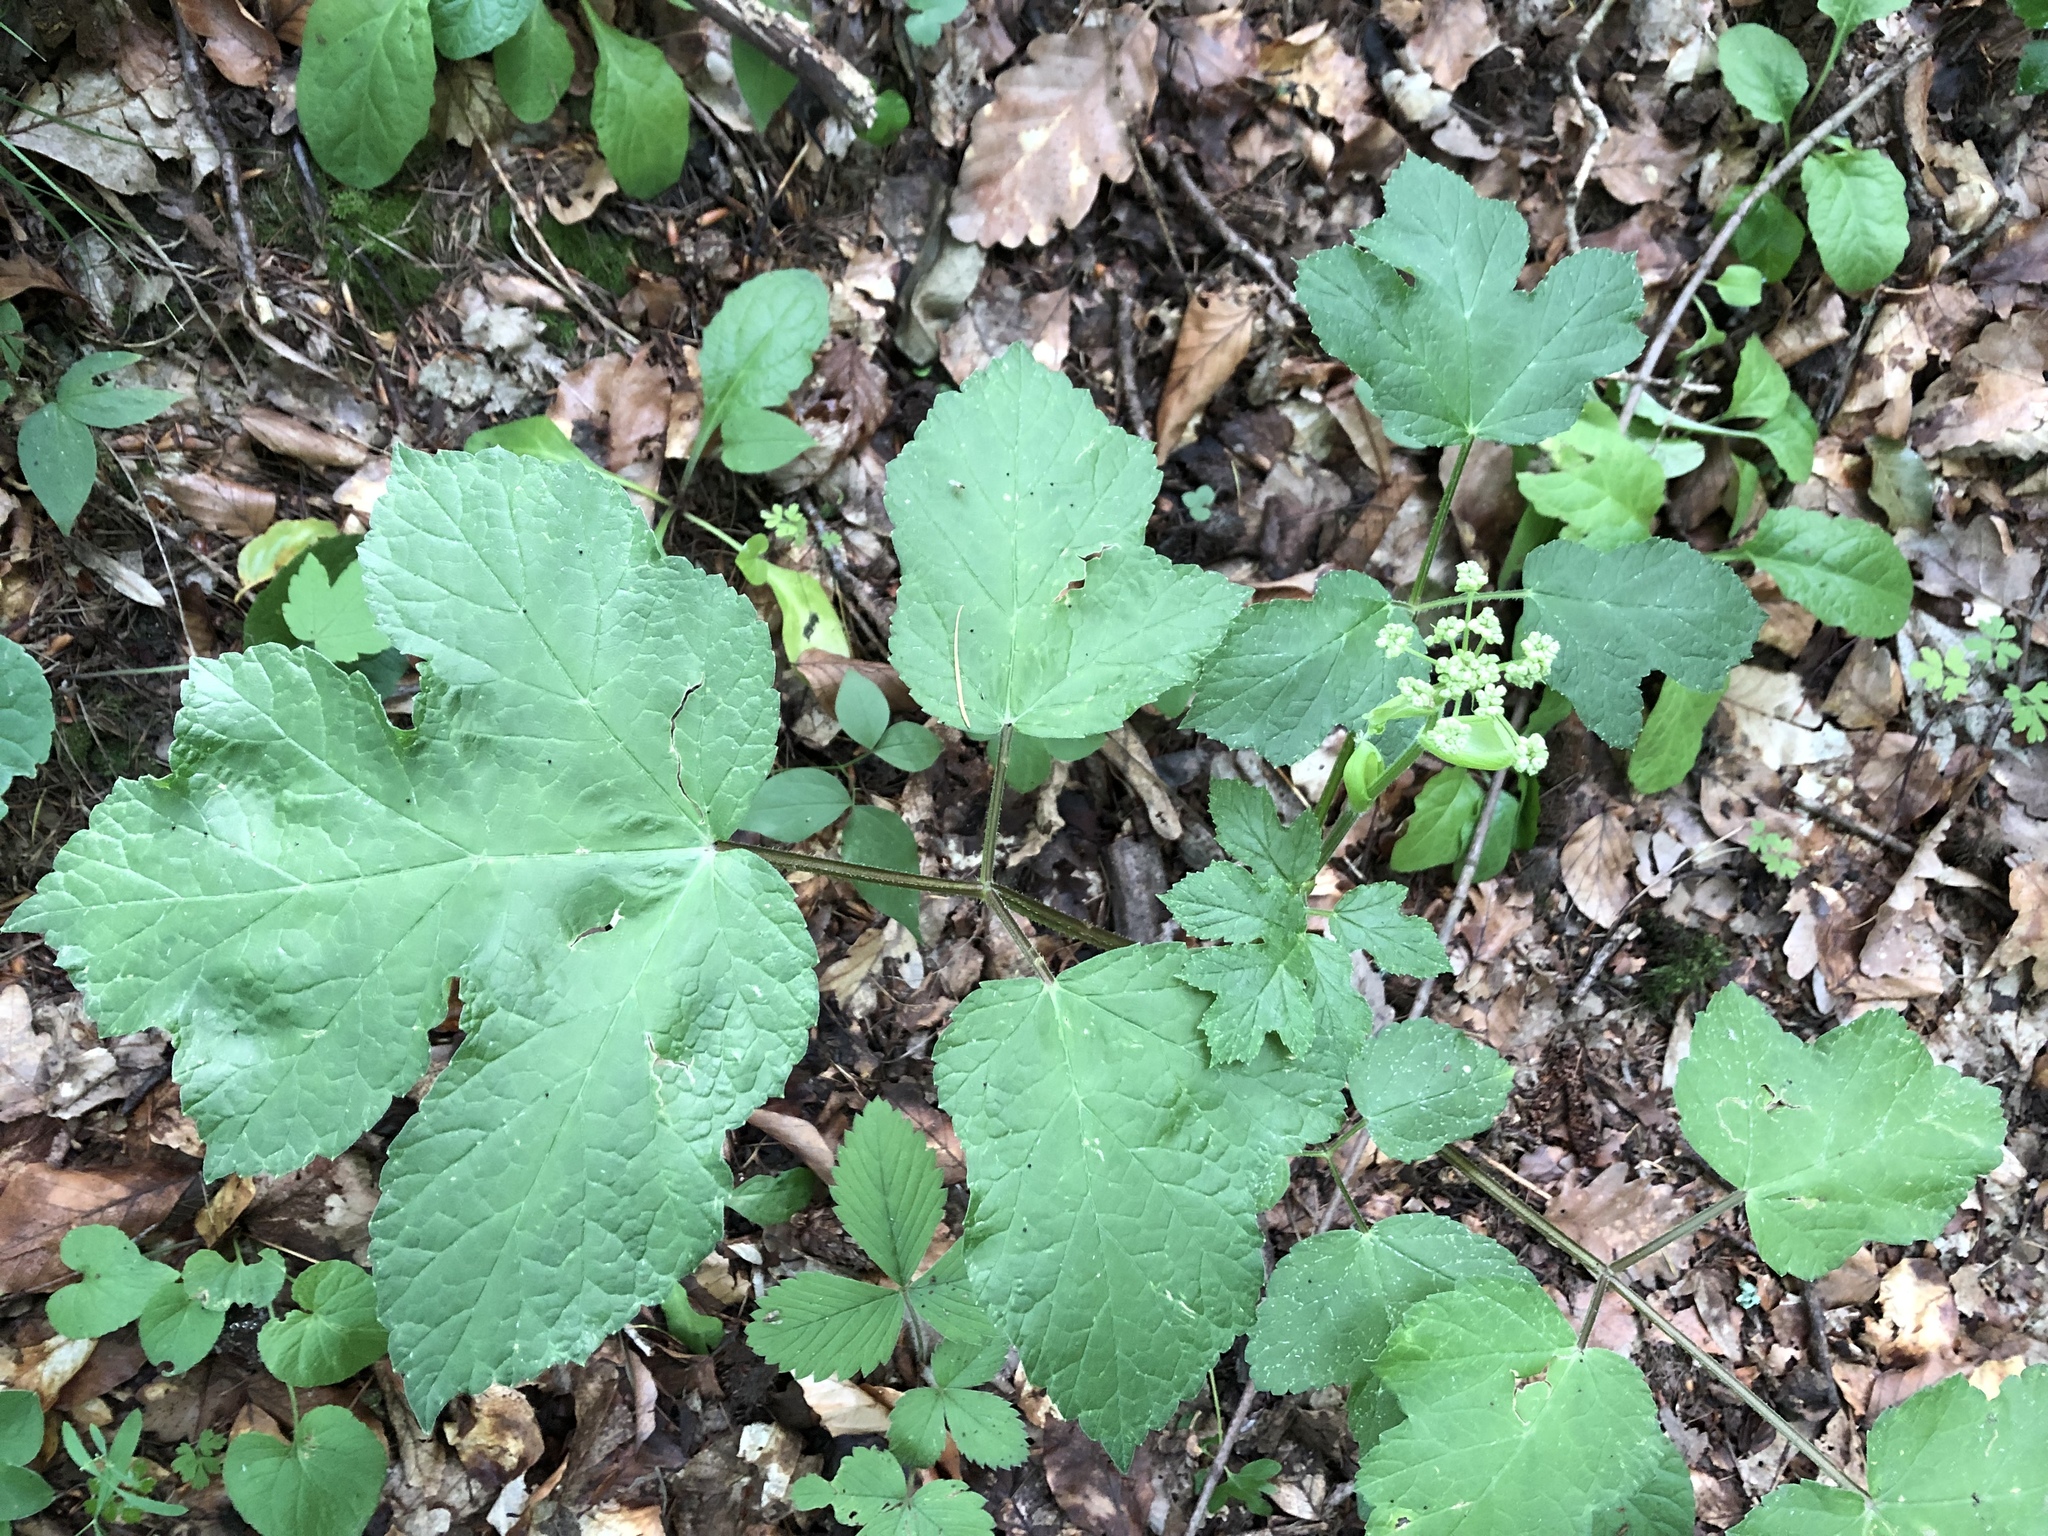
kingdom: Plantae
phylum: Tracheophyta
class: Magnoliopsida
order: Apiales
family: Apiaceae
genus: Heracleum
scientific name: Heracleum sphondylium
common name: Hogweed
